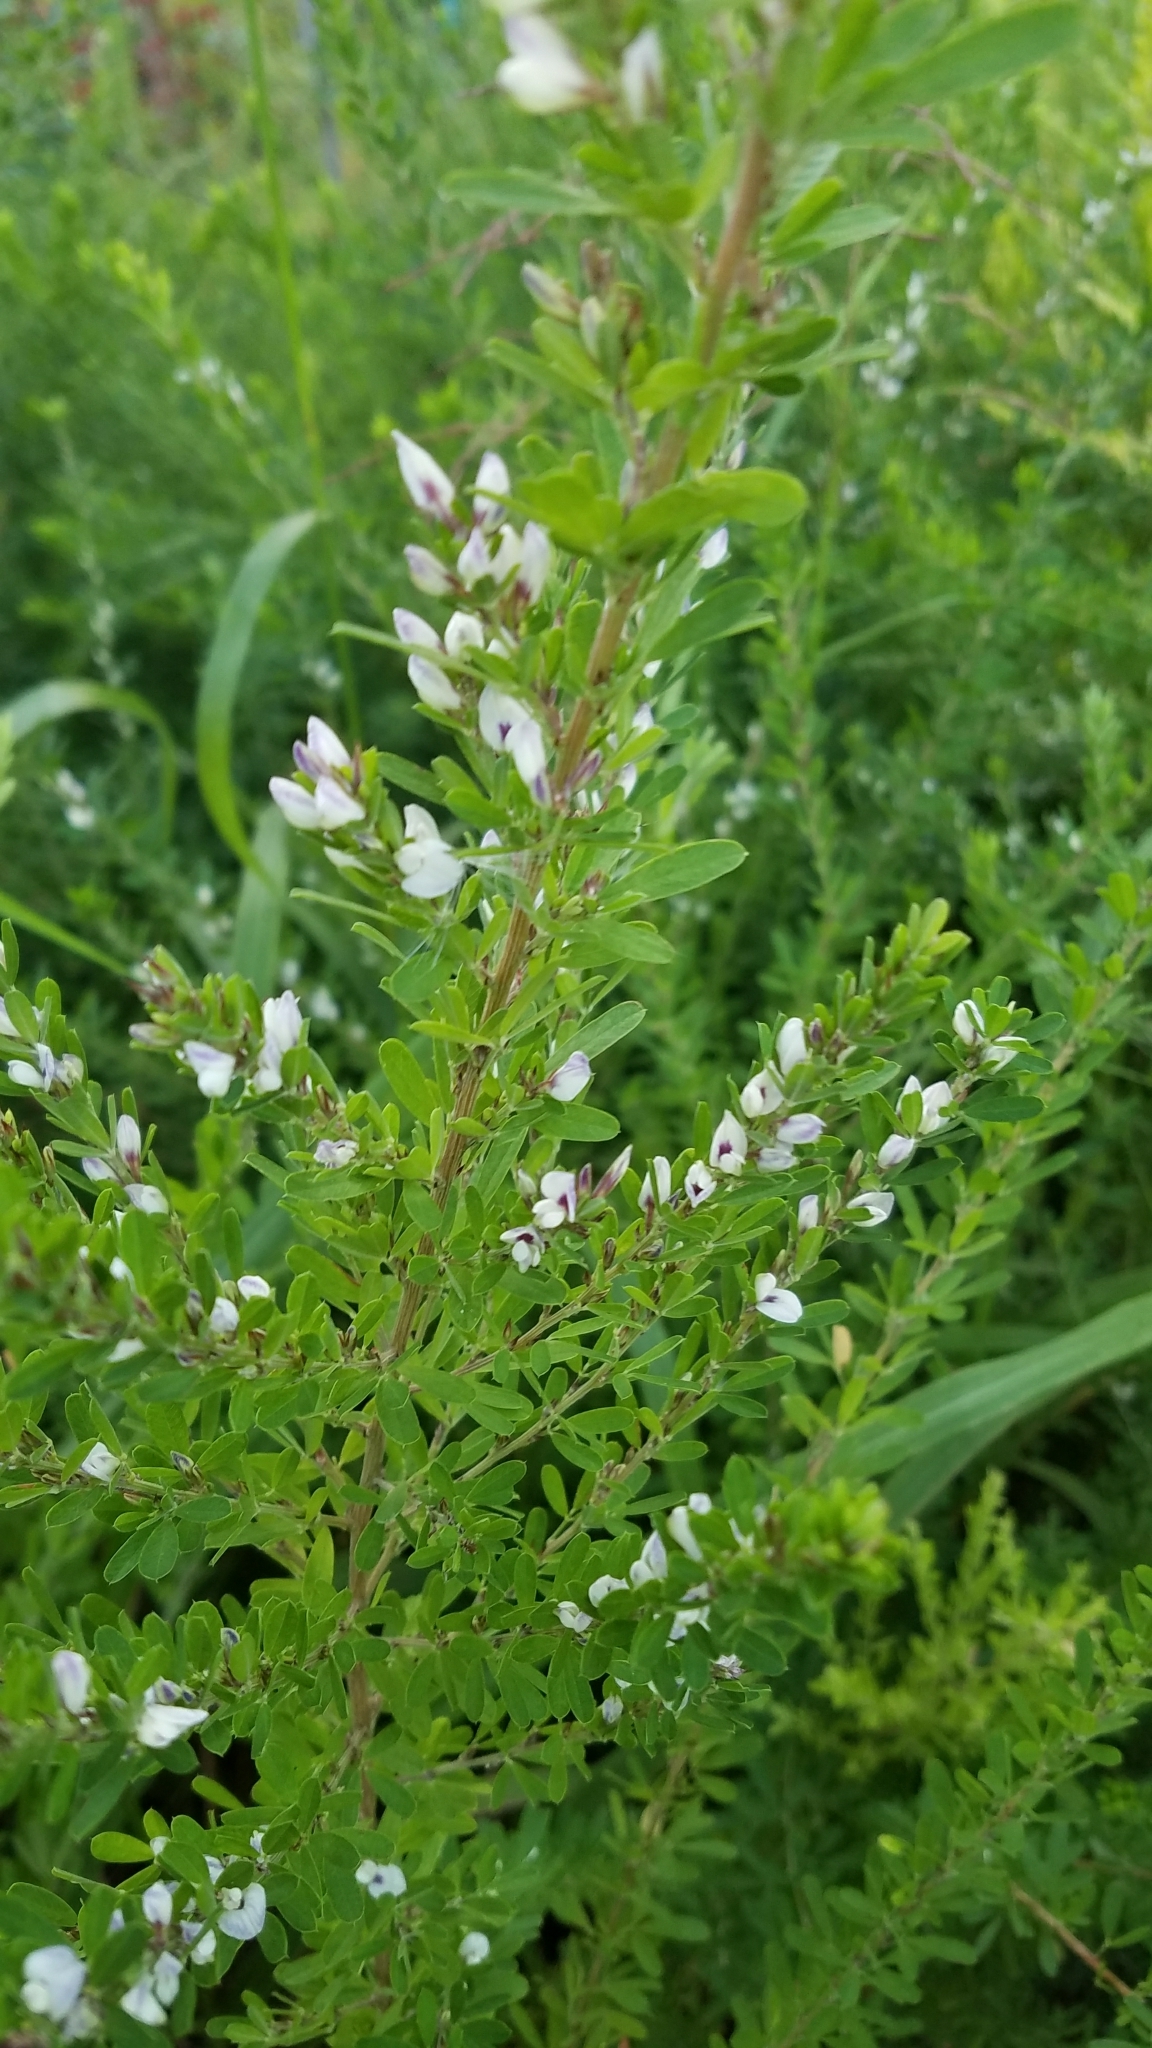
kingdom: Plantae
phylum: Tracheophyta
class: Magnoliopsida
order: Fabales
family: Fabaceae
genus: Lespedeza
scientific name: Lespedeza cuneata
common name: Chinese bush-clover
